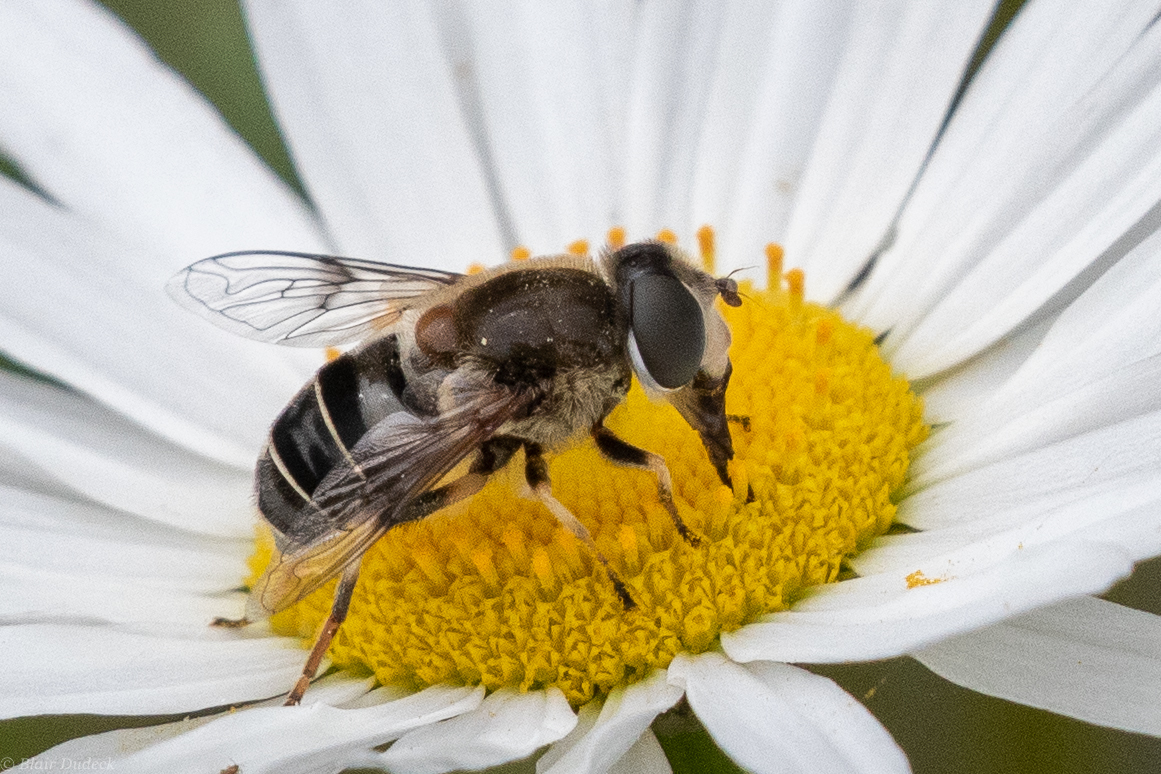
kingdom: Animalia
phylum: Arthropoda
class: Insecta
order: Diptera
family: Syrphidae
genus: Eristalis
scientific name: Eristalis obscura
